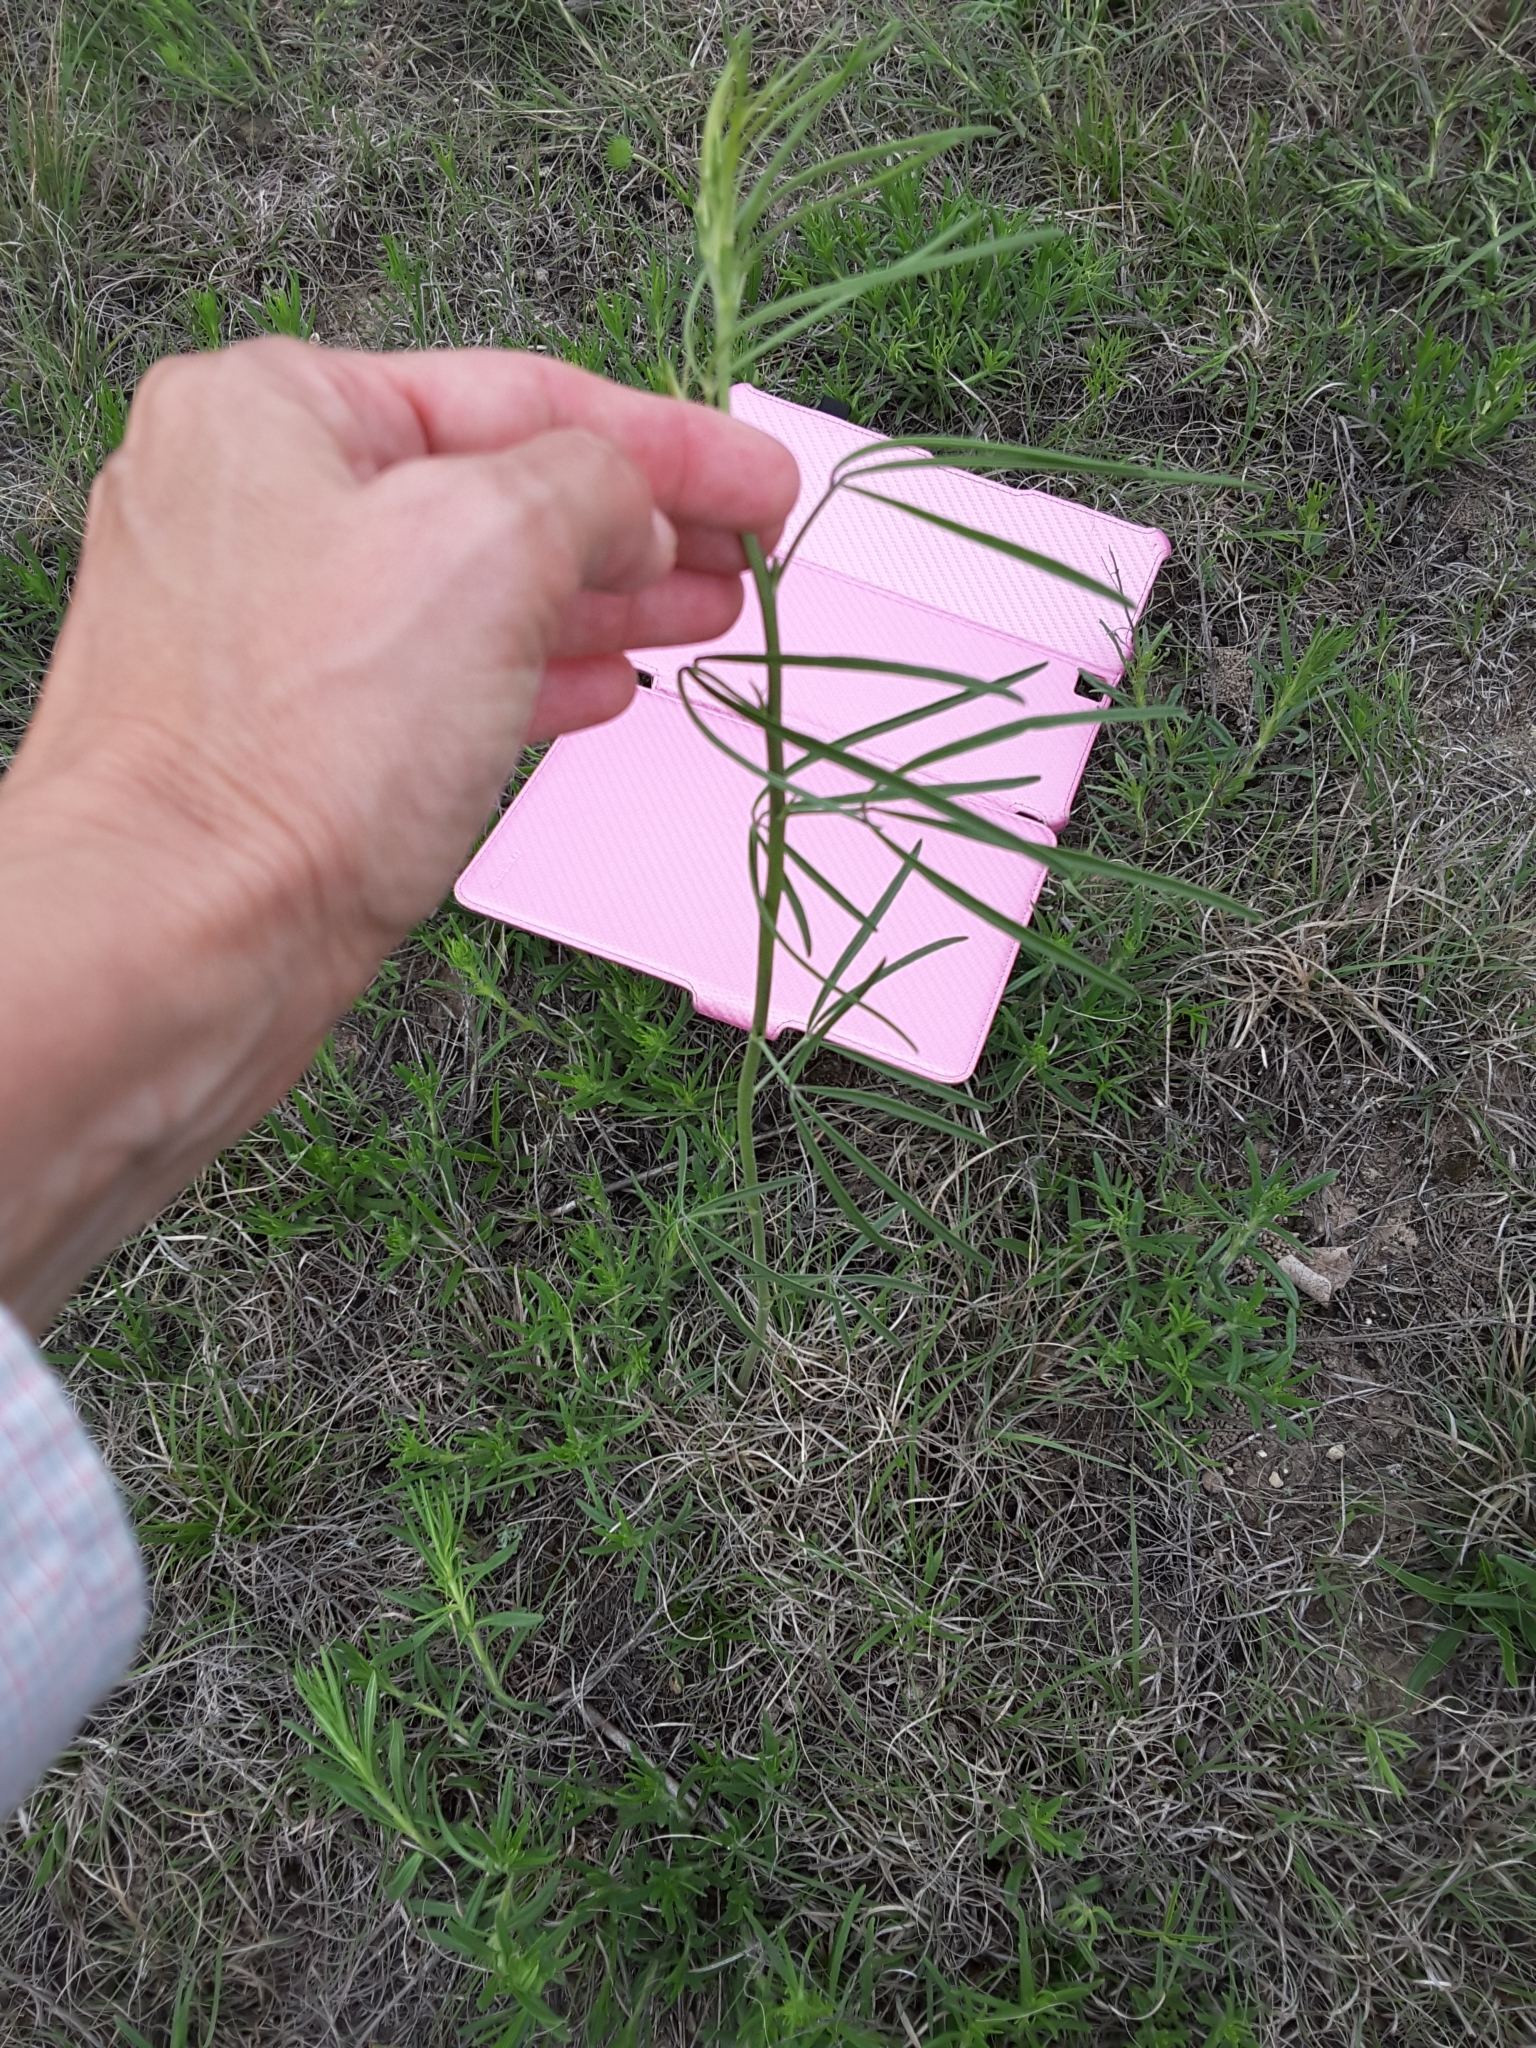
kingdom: Plantae
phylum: Tracheophyta
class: Magnoliopsida
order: Fabales
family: Fabaceae
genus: Pediomelum
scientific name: Pediomelum linearifolium
